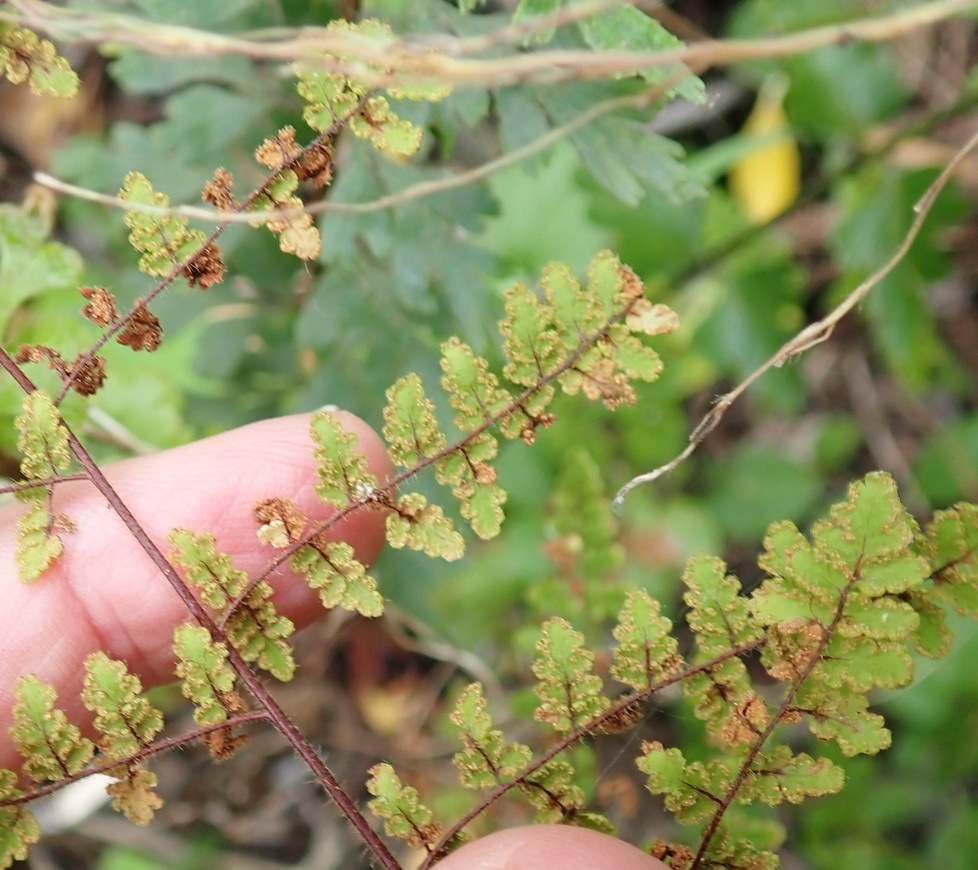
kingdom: Plantae
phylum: Tracheophyta
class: Polypodiopsida
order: Polypodiales
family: Pteridaceae
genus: Cheilanthes
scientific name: Cheilanthes hirta
